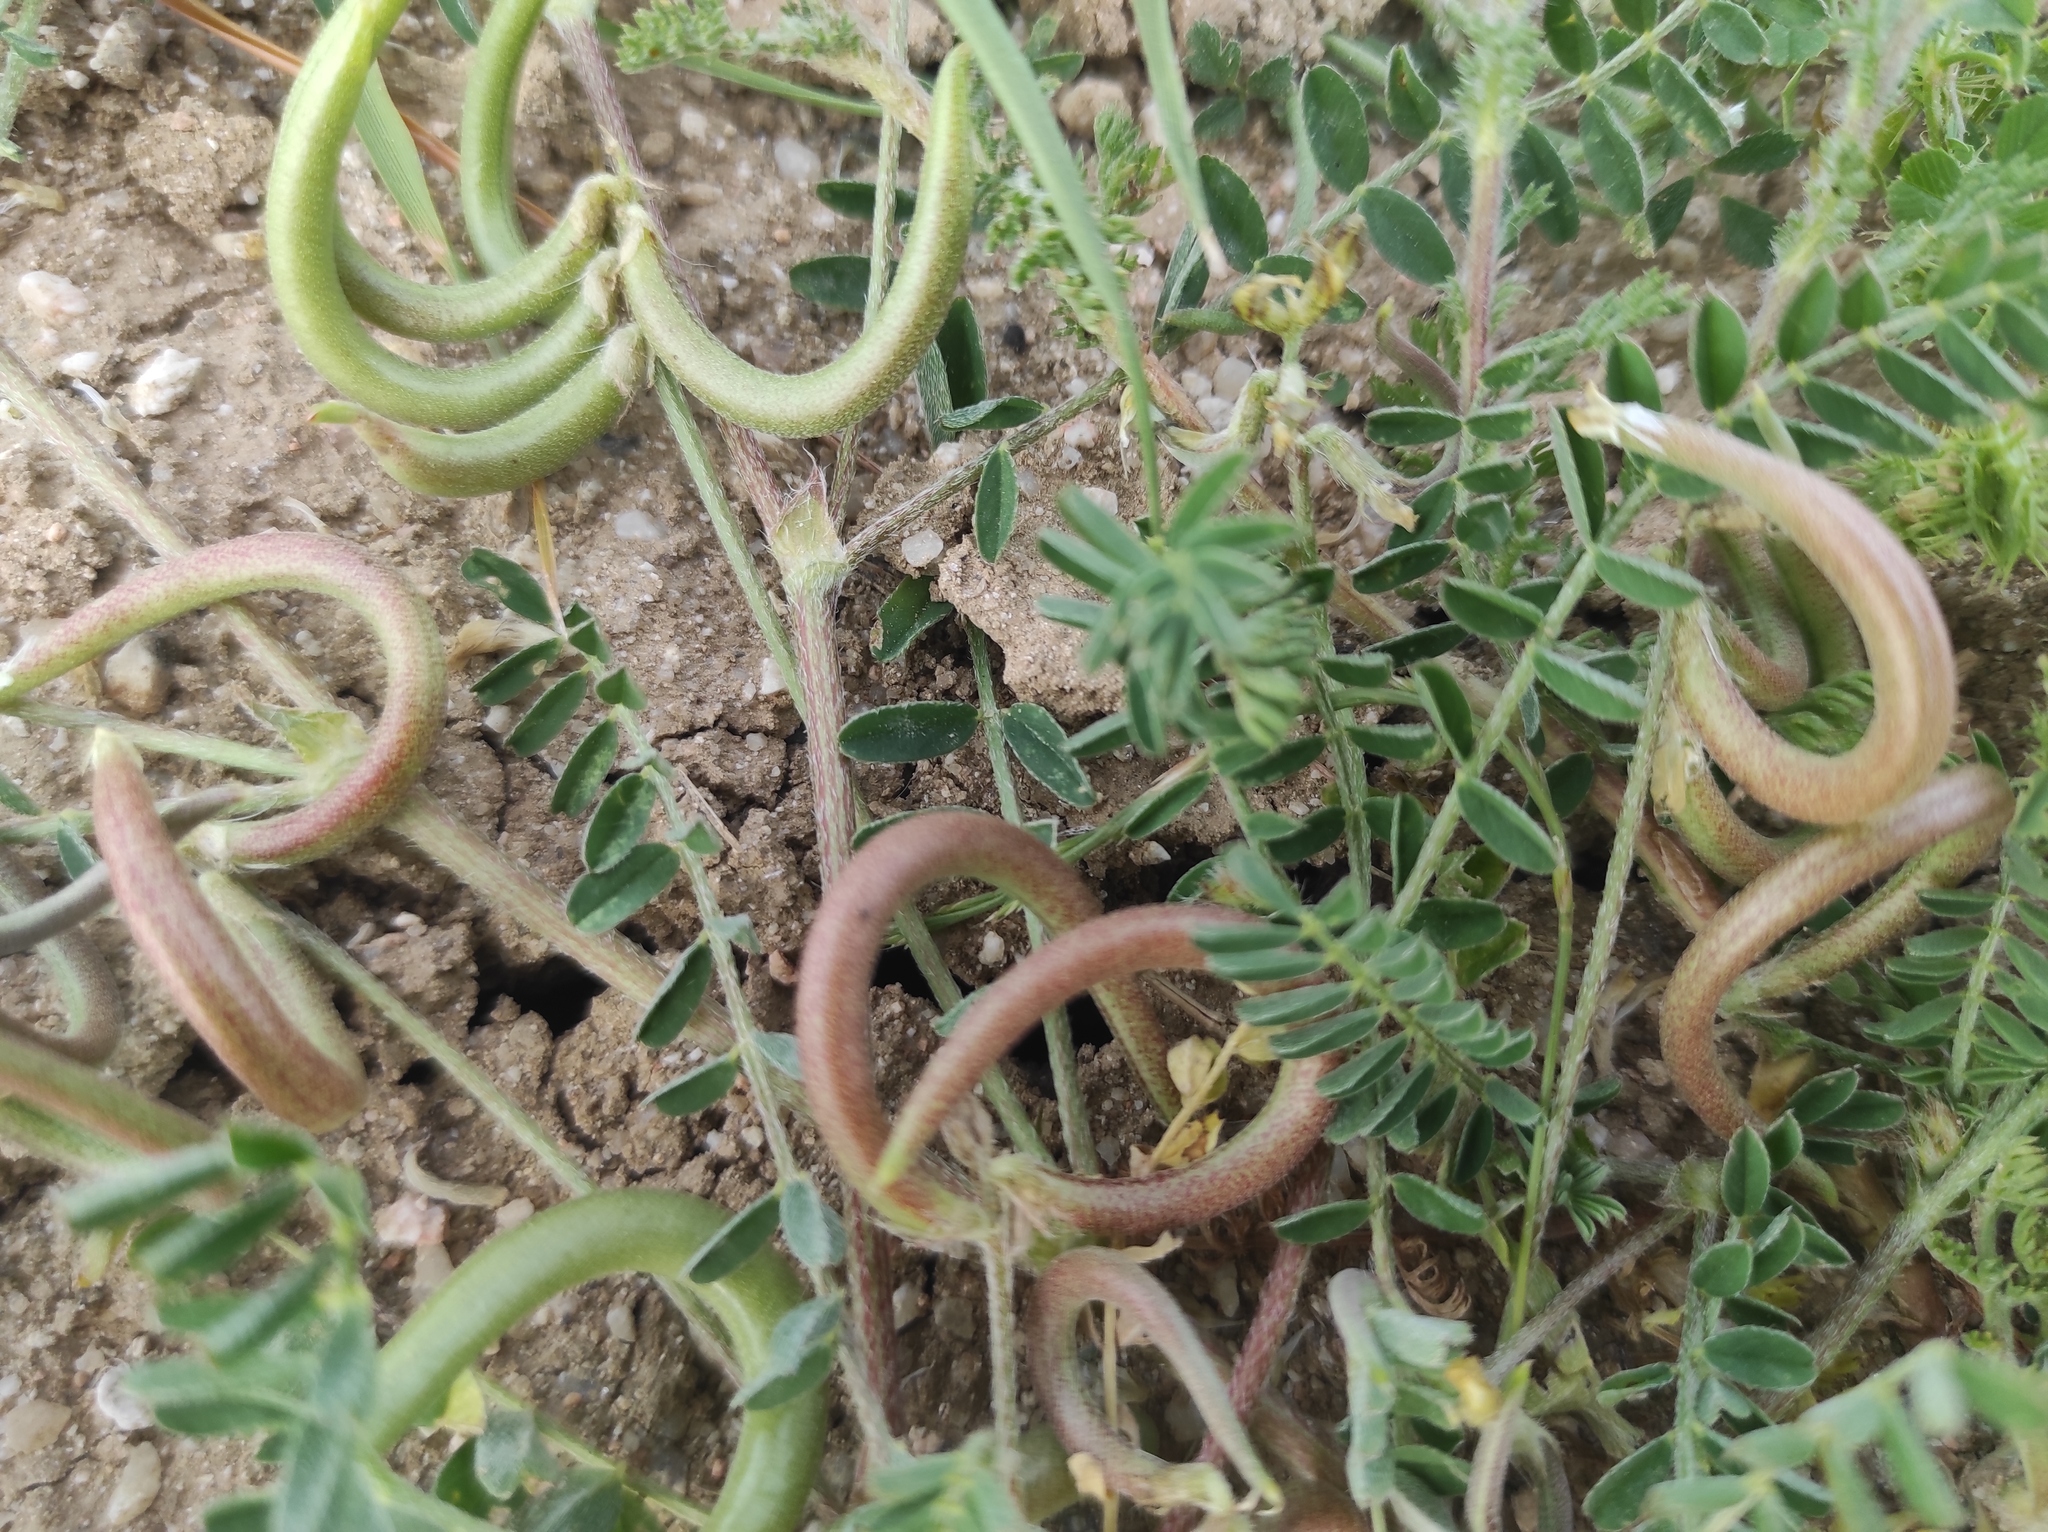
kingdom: Plantae
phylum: Tracheophyta
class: Magnoliopsida
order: Fabales
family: Fabaceae
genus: Astragalus
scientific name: Astragalus hamosus
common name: European milkvetch
